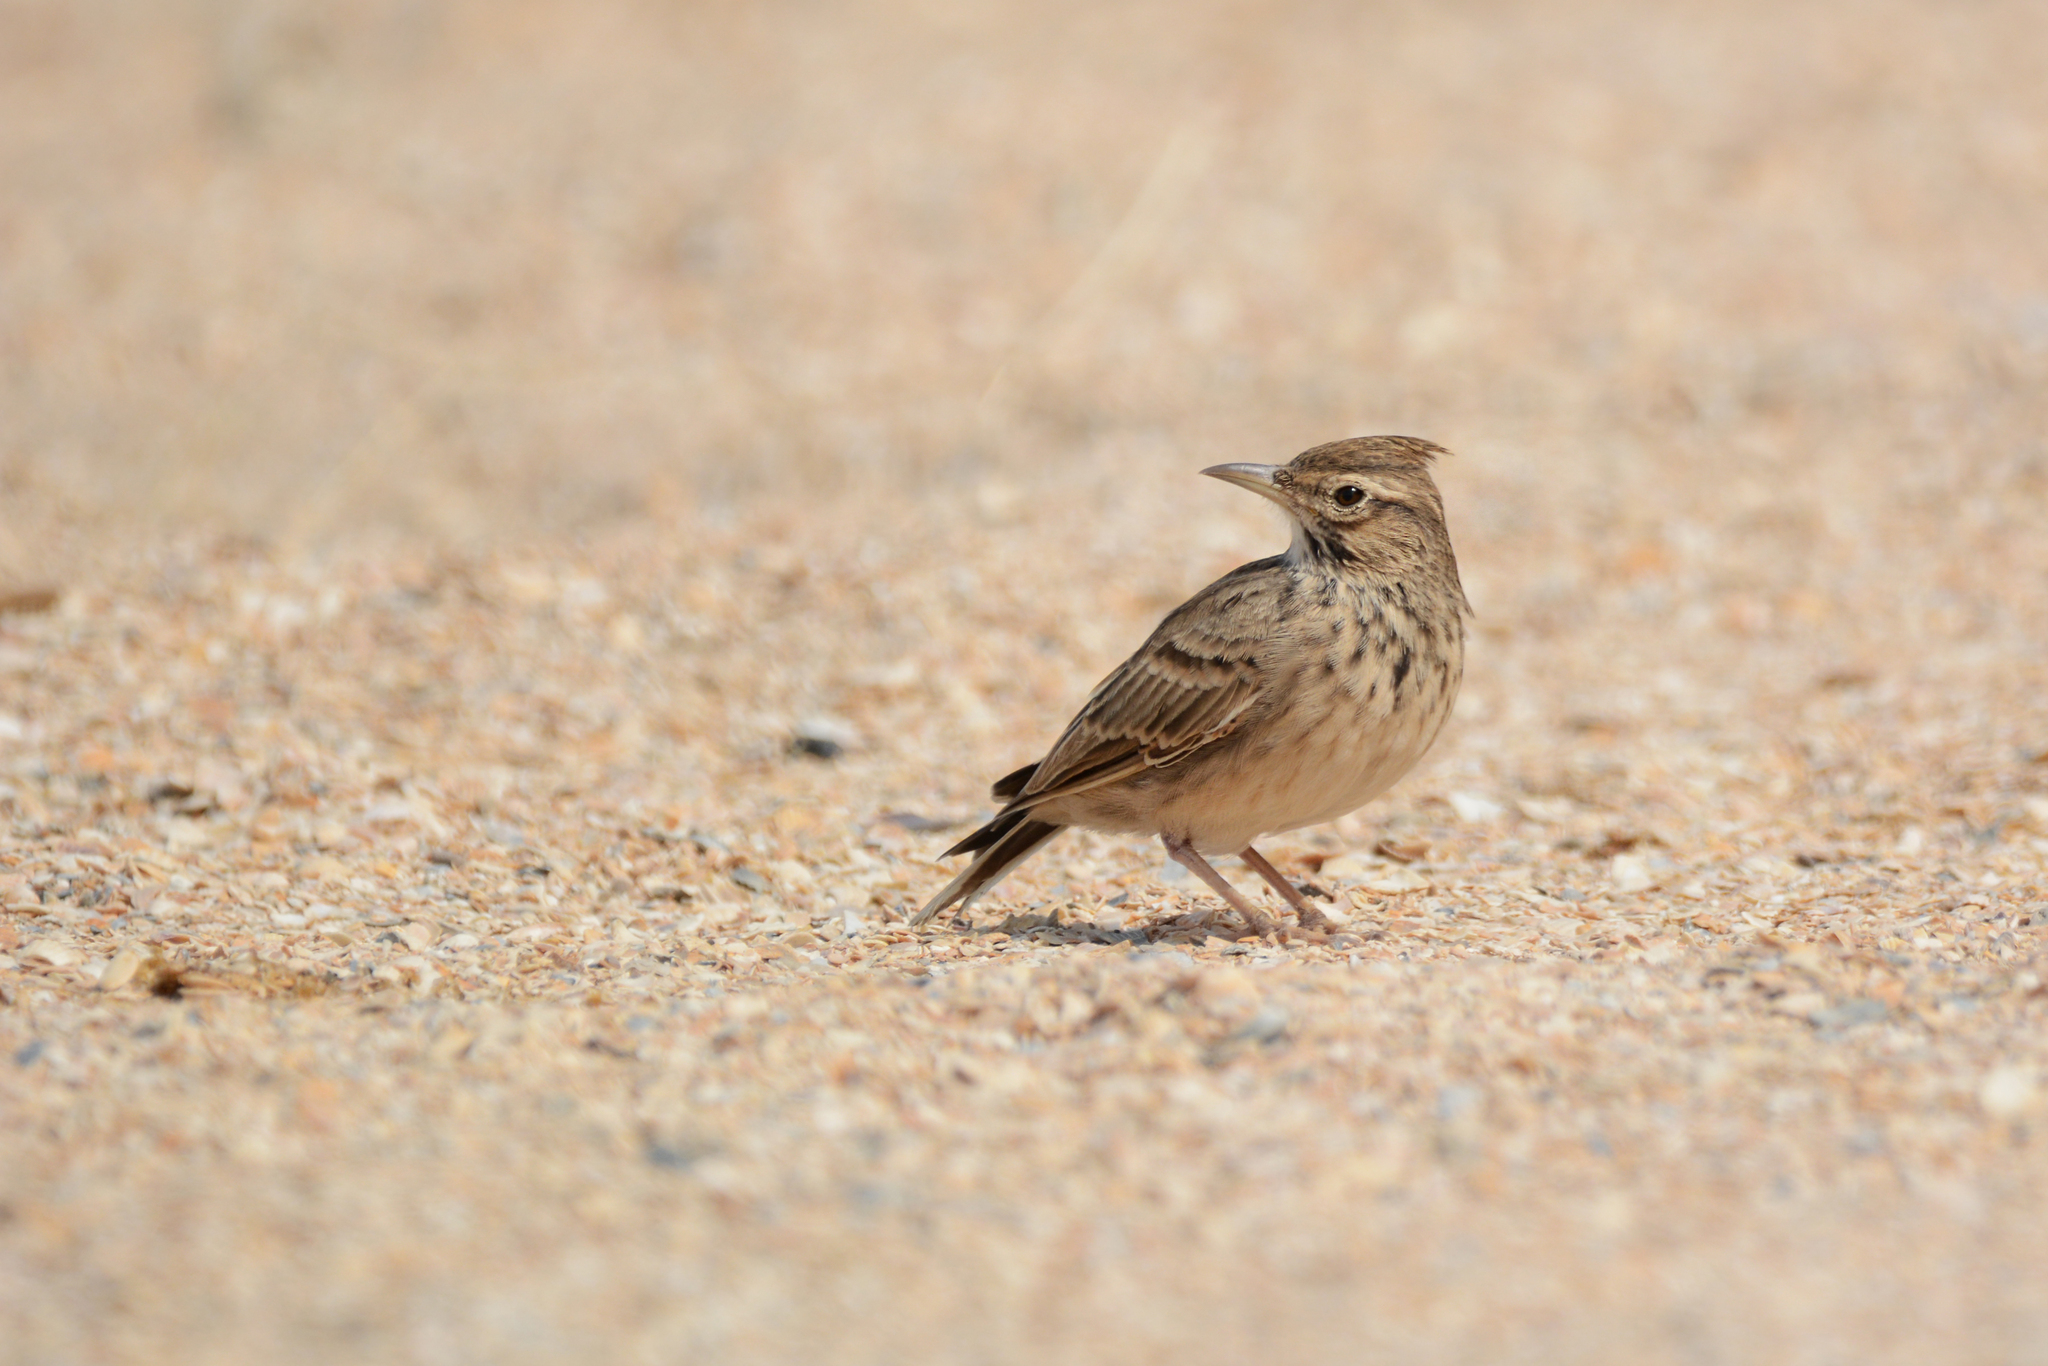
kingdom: Animalia
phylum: Chordata
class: Aves
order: Passeriformes
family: Alaudidae
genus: Galerida
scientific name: Galerida cristata
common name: Crested lark
